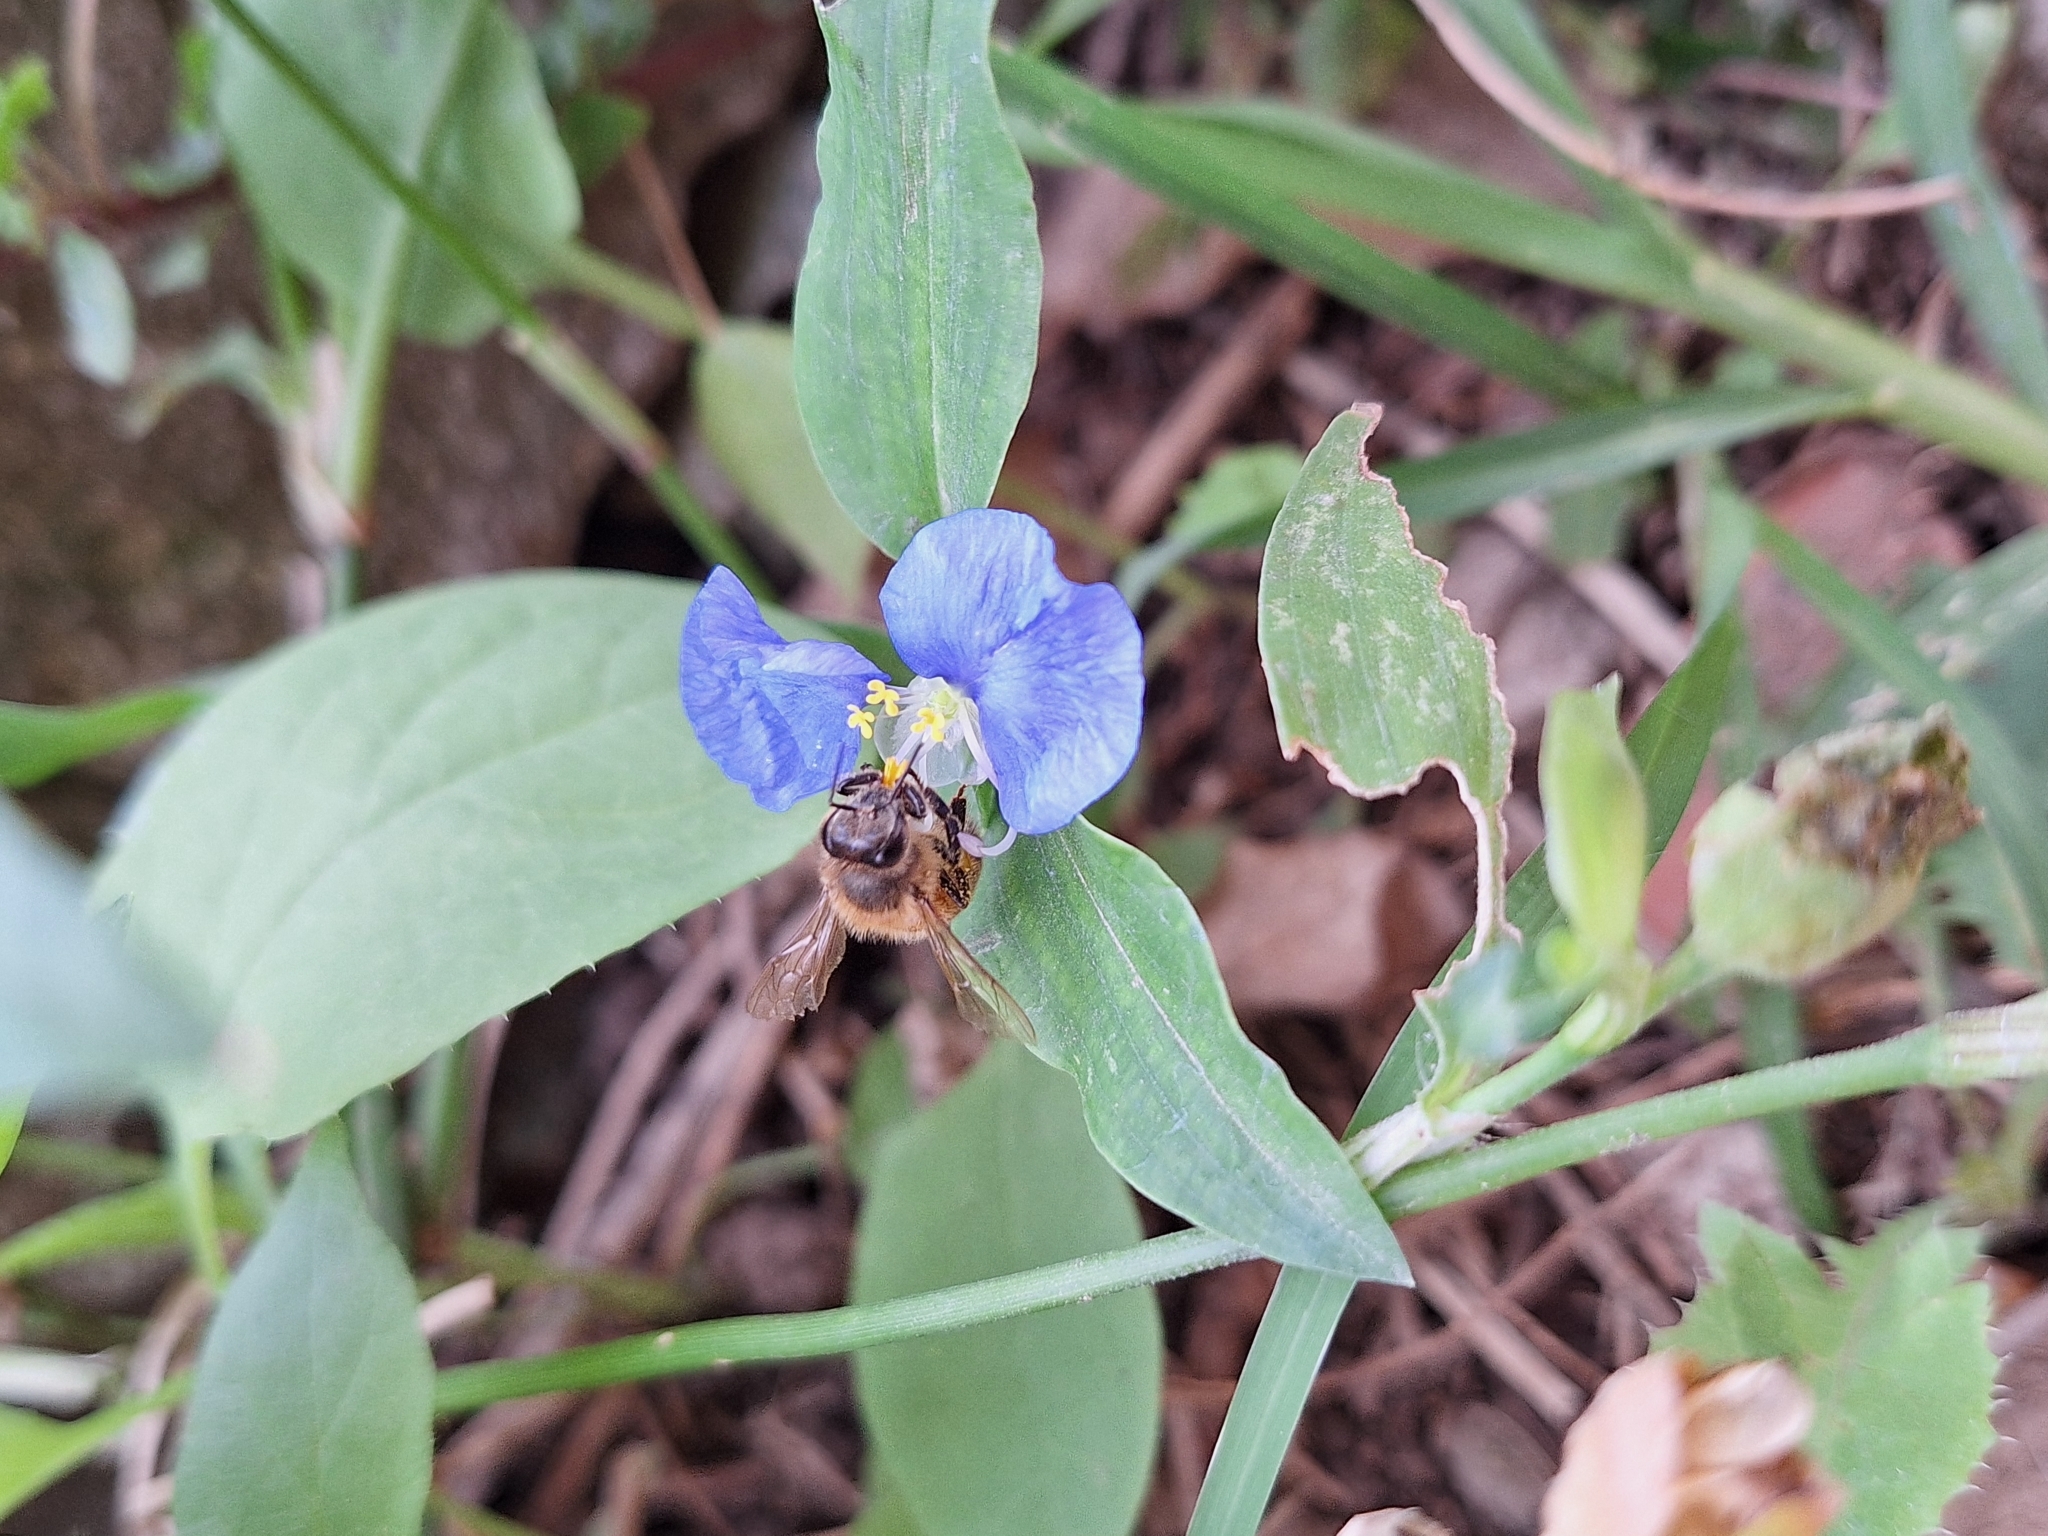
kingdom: Plantae
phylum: Tracheophyta
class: Liliopsida
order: Commelinales
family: Commelinaceae
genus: Commelina
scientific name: Commelina erecta
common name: Blousel blommetjie
